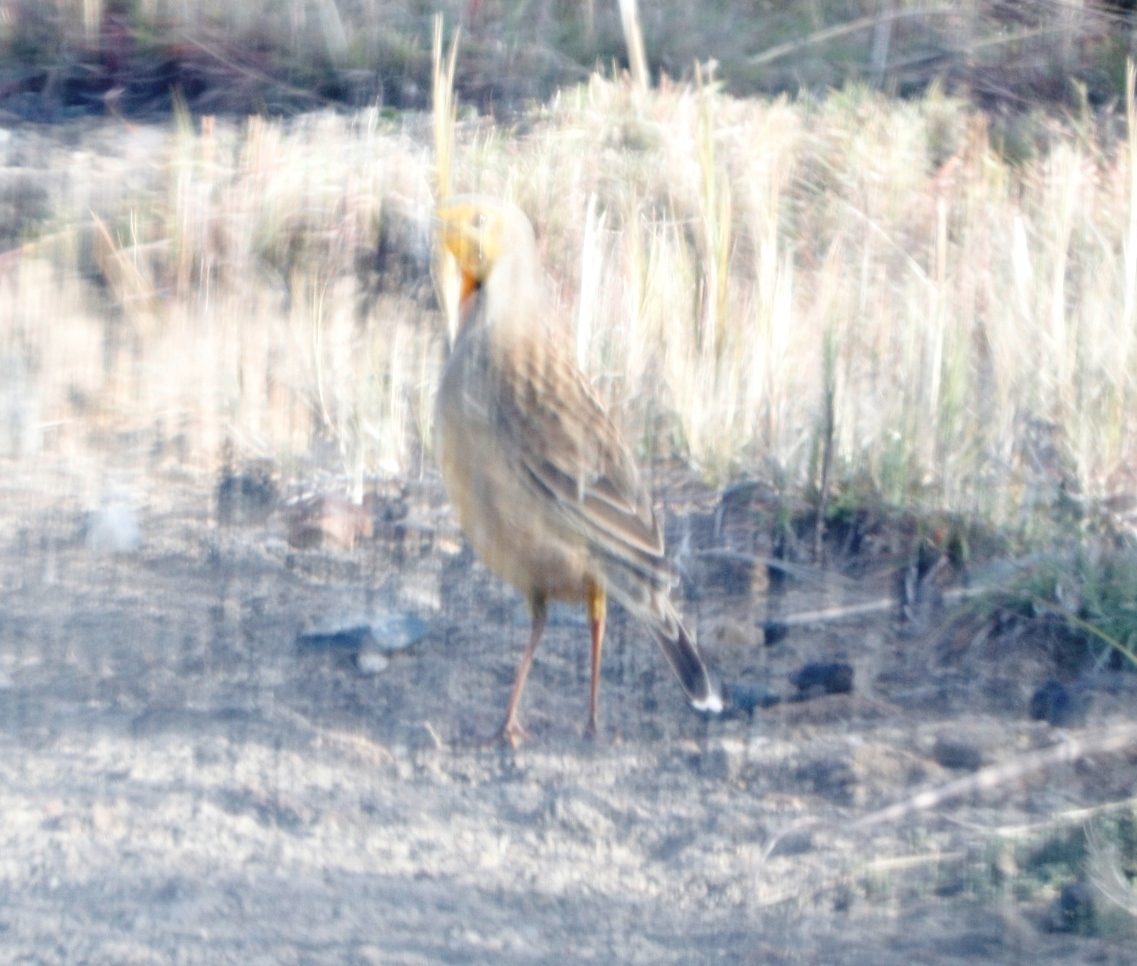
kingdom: Animalia
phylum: Chordata
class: Aves
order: Passeriformes
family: Motacillidae
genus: Macronyx
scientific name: Macronyx capensis
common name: Cape longclaw
